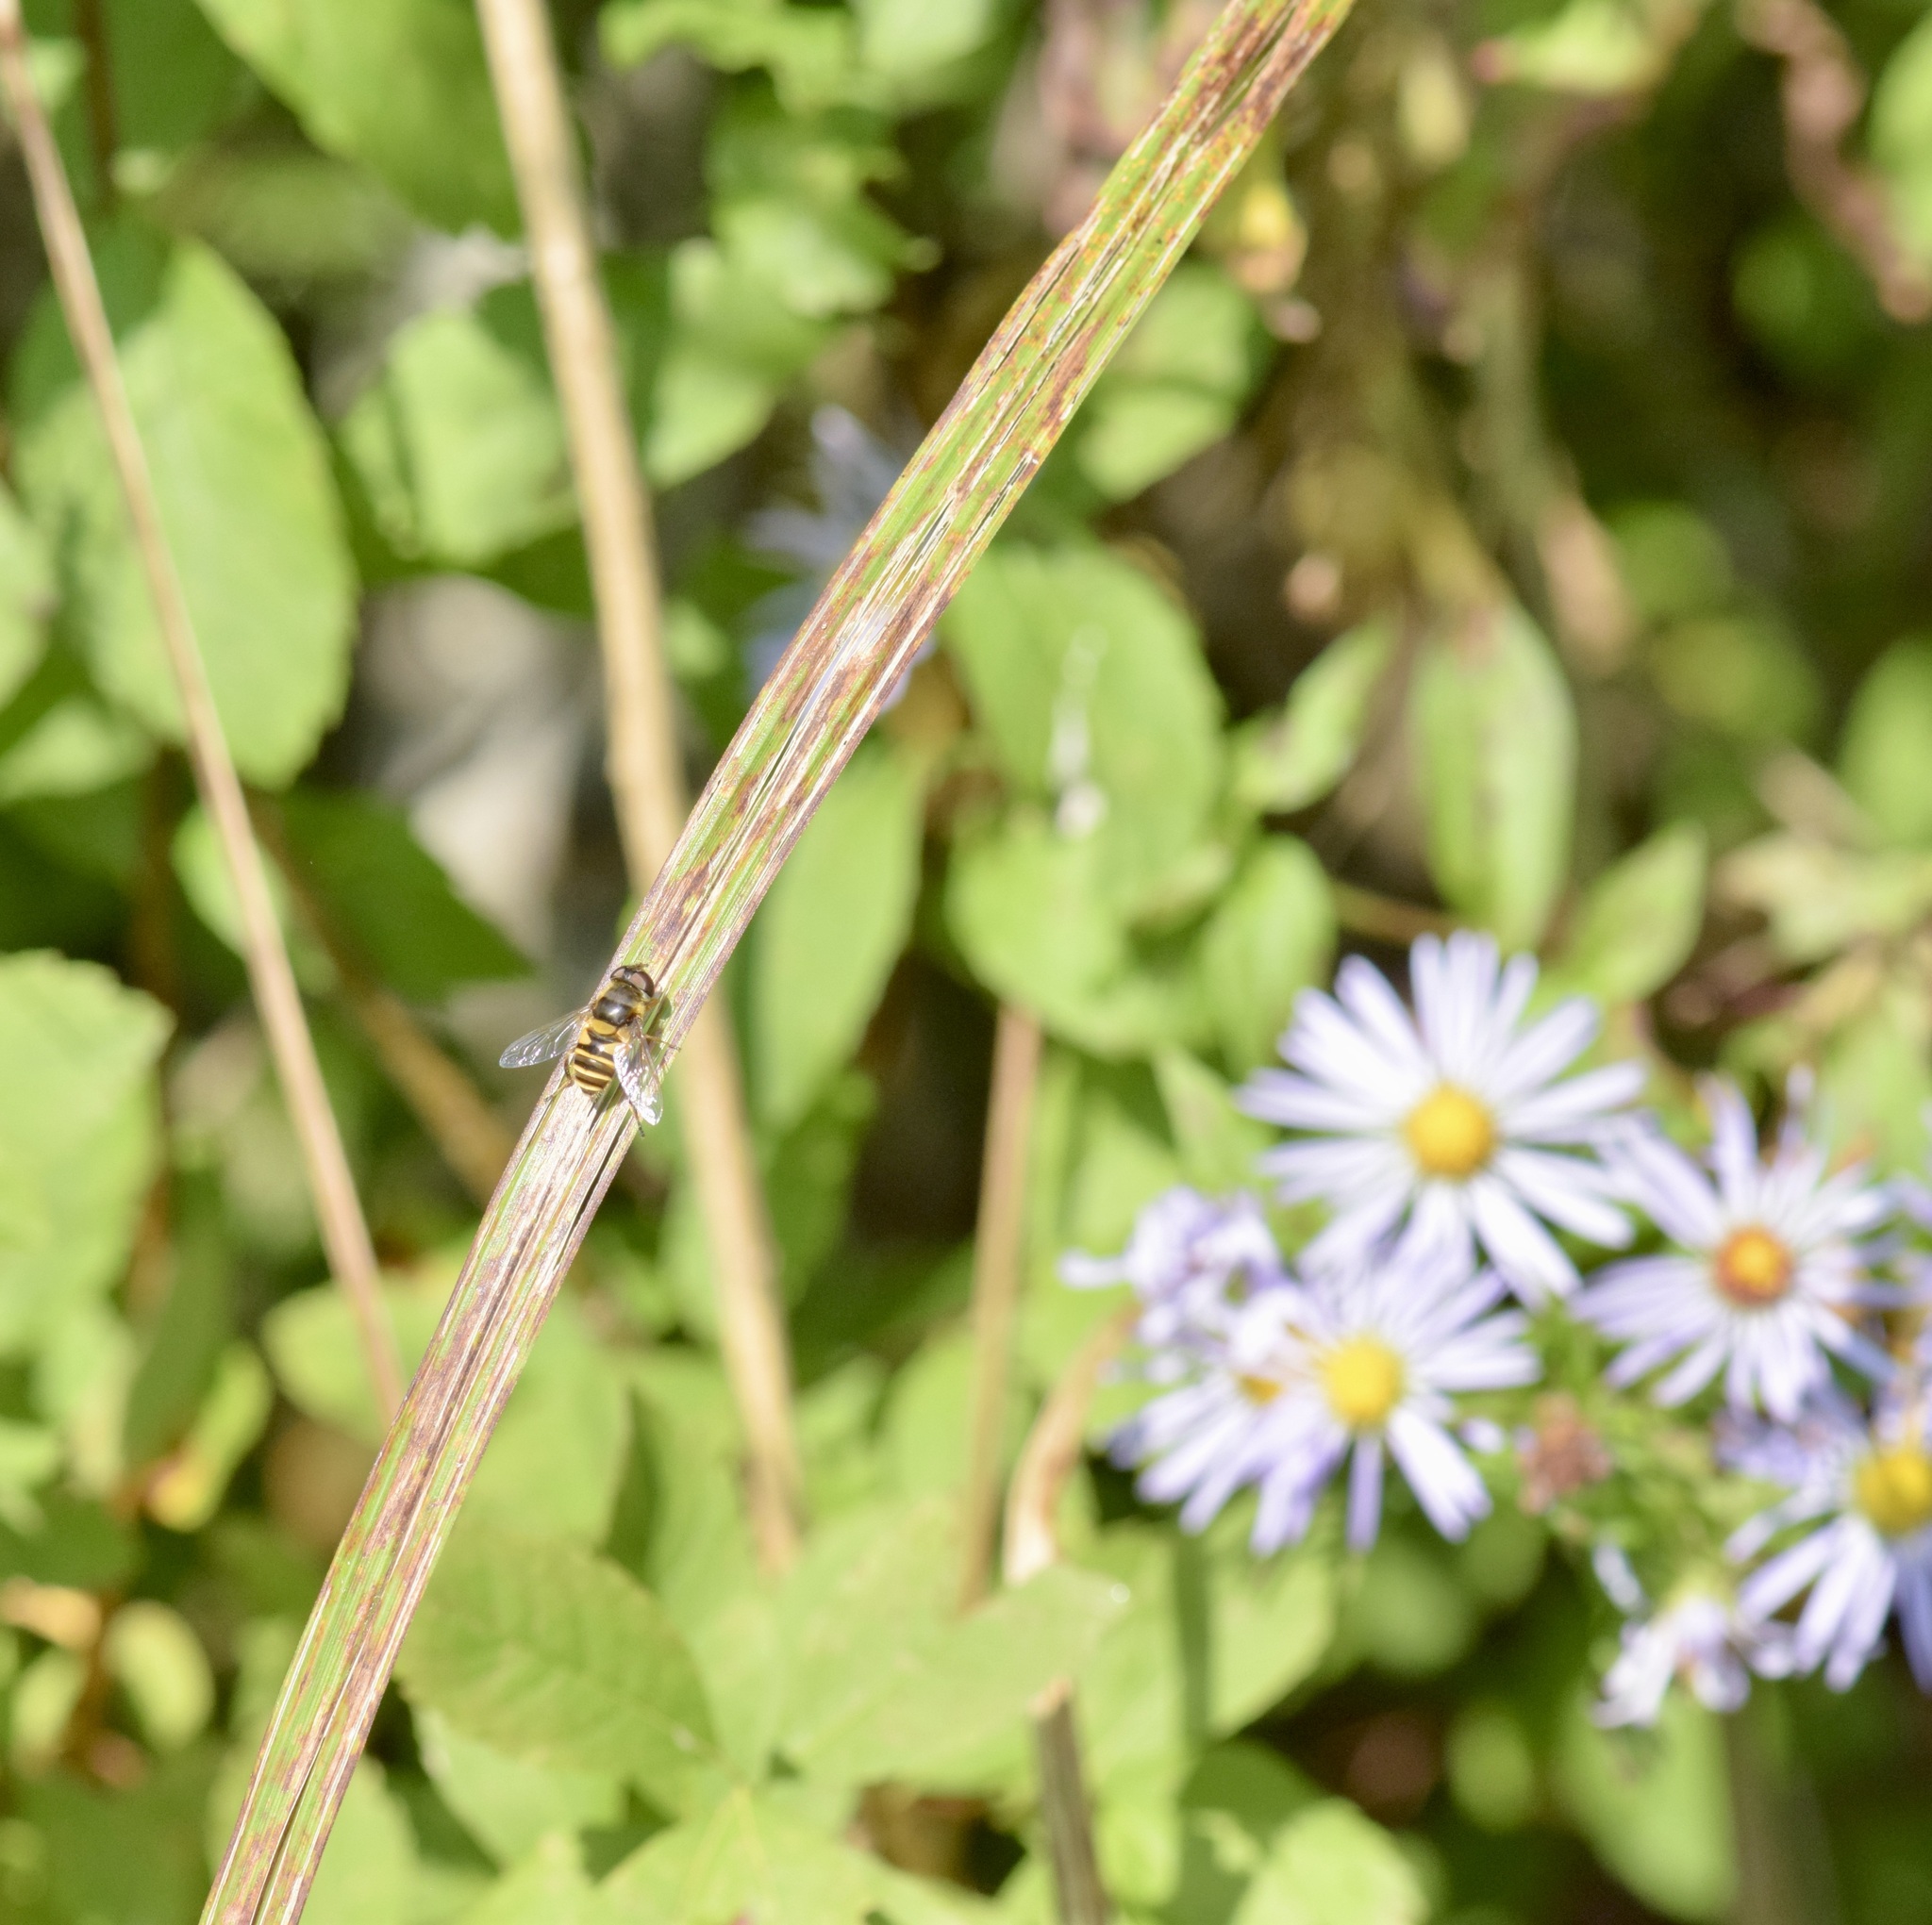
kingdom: Animalia
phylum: Arthropoda
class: Insecta
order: Diptera
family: Syrphidae
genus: Eristalis
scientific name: Eristalis transversa
